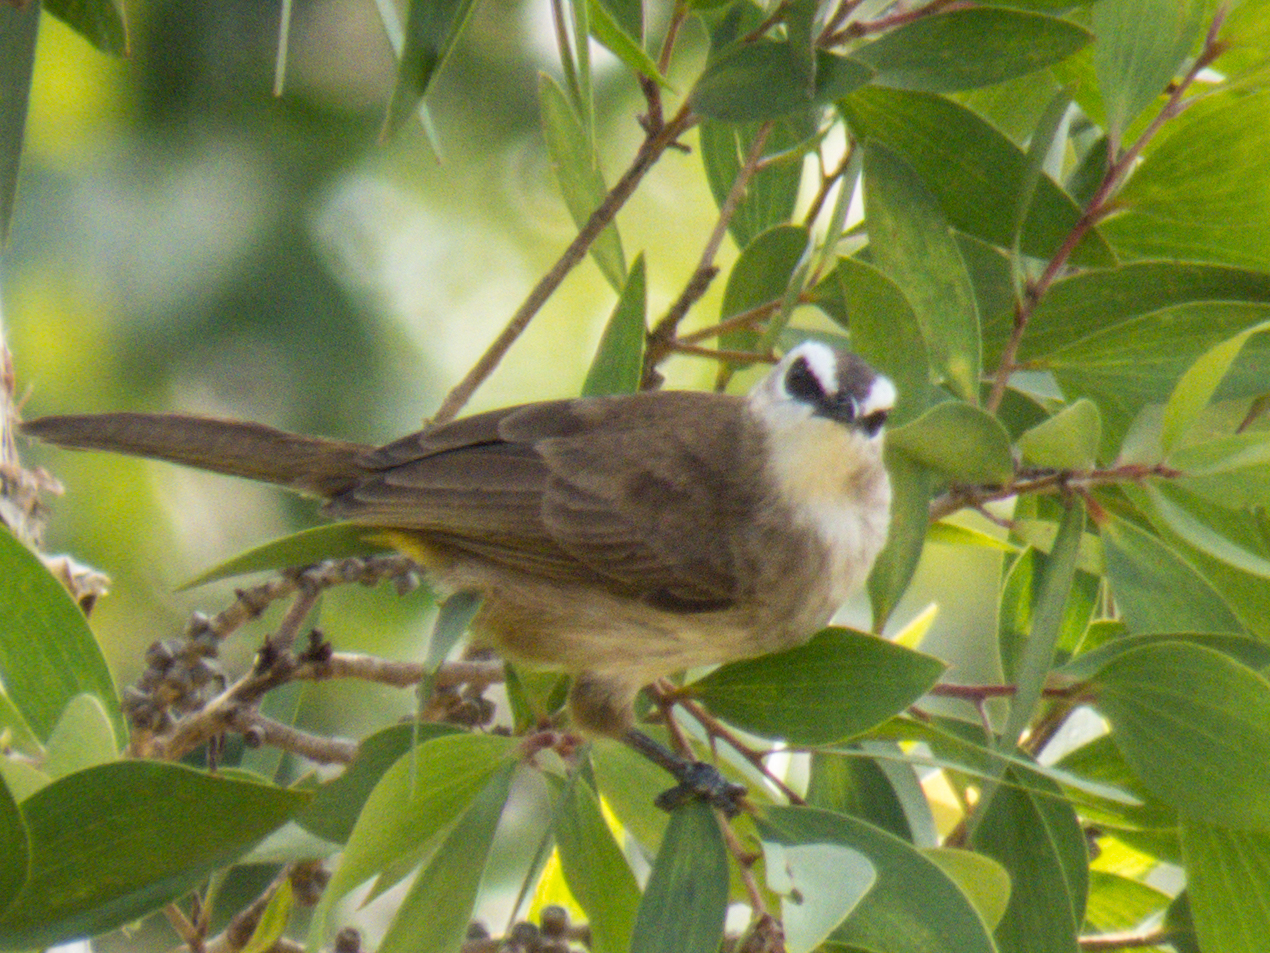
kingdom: Animalia
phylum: Chordata
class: Aves
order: Passeriformes
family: Pycnonotidae
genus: Pycnonotus
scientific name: Pycnonotus goiavier
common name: Yellow-vented bulbul
